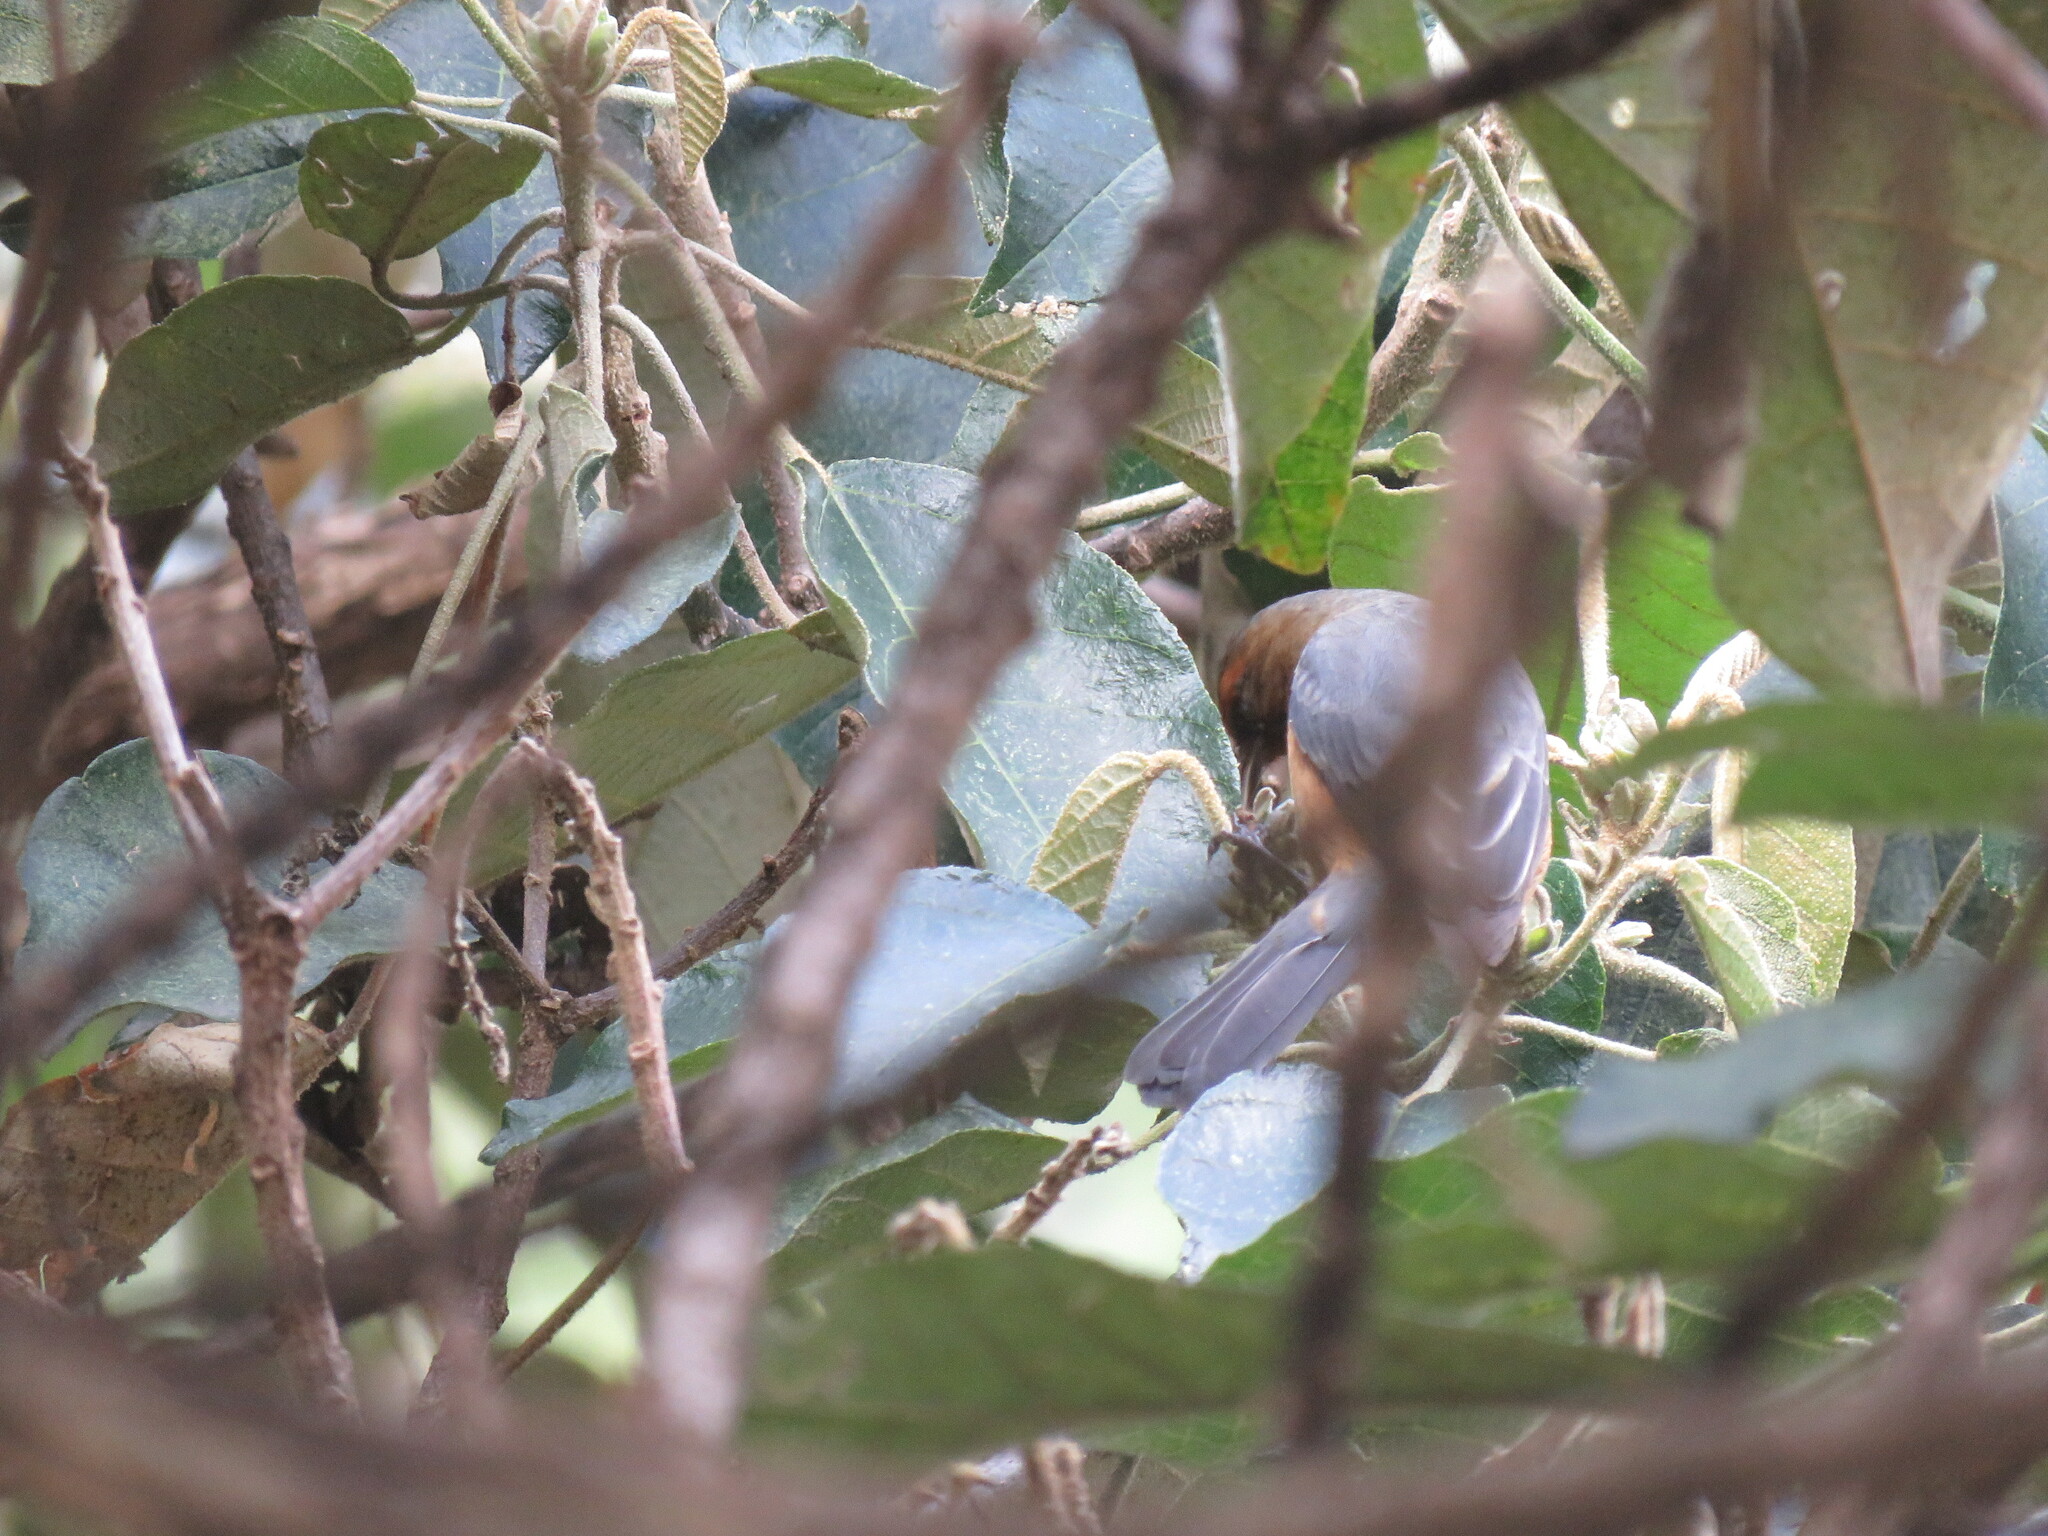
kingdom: Animalia
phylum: Chordata
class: Aves
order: Passeriformes
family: Thraupidae
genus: Conirostrum
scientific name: Conirostrum rufum
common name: Rufous-browed conebill
